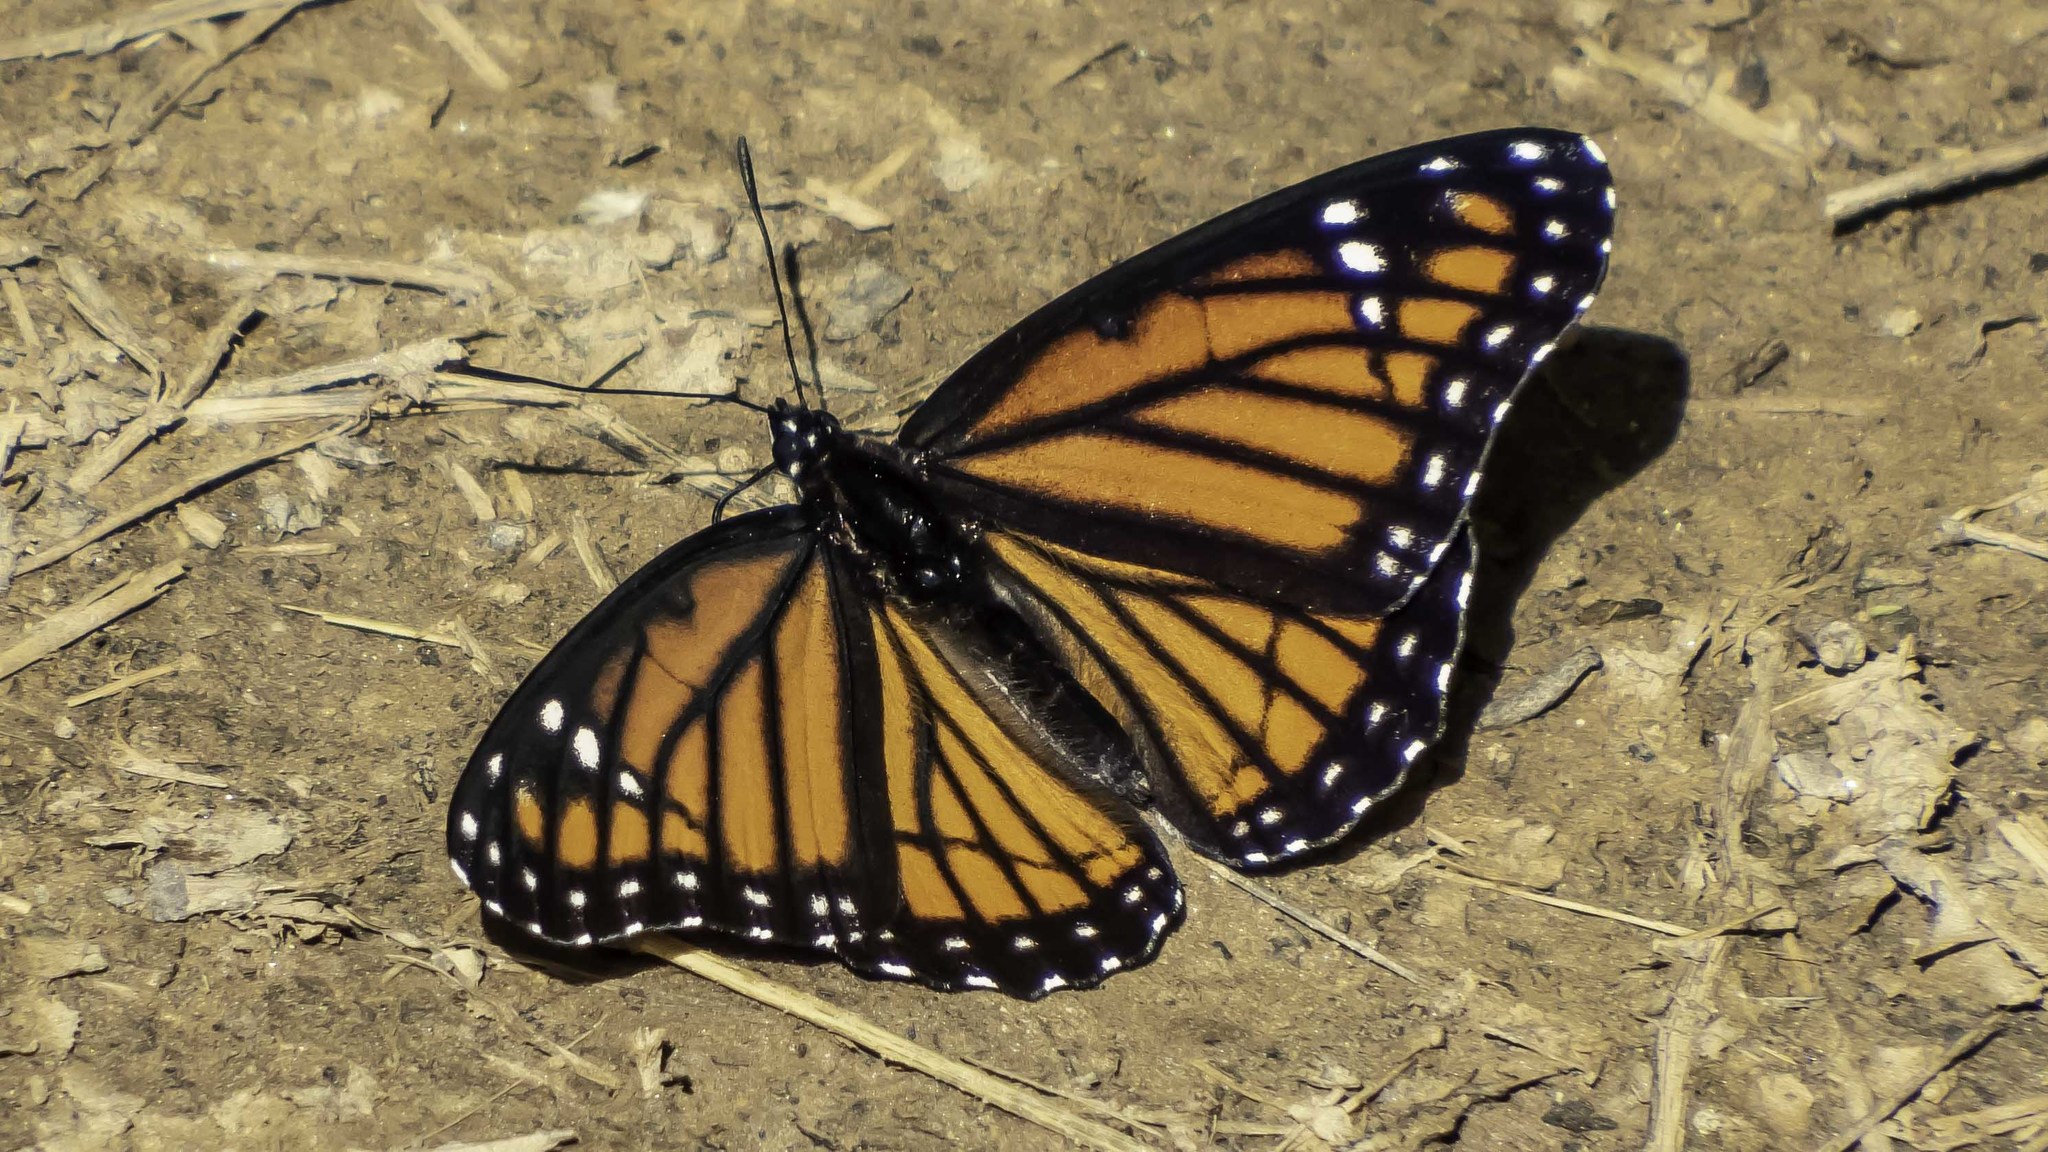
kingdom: Animalia
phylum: Arthropoda
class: Insecta
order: Lepidoptera
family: Nymphalidae
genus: Limenitis
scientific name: Limenitis archippus
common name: Viceroy
